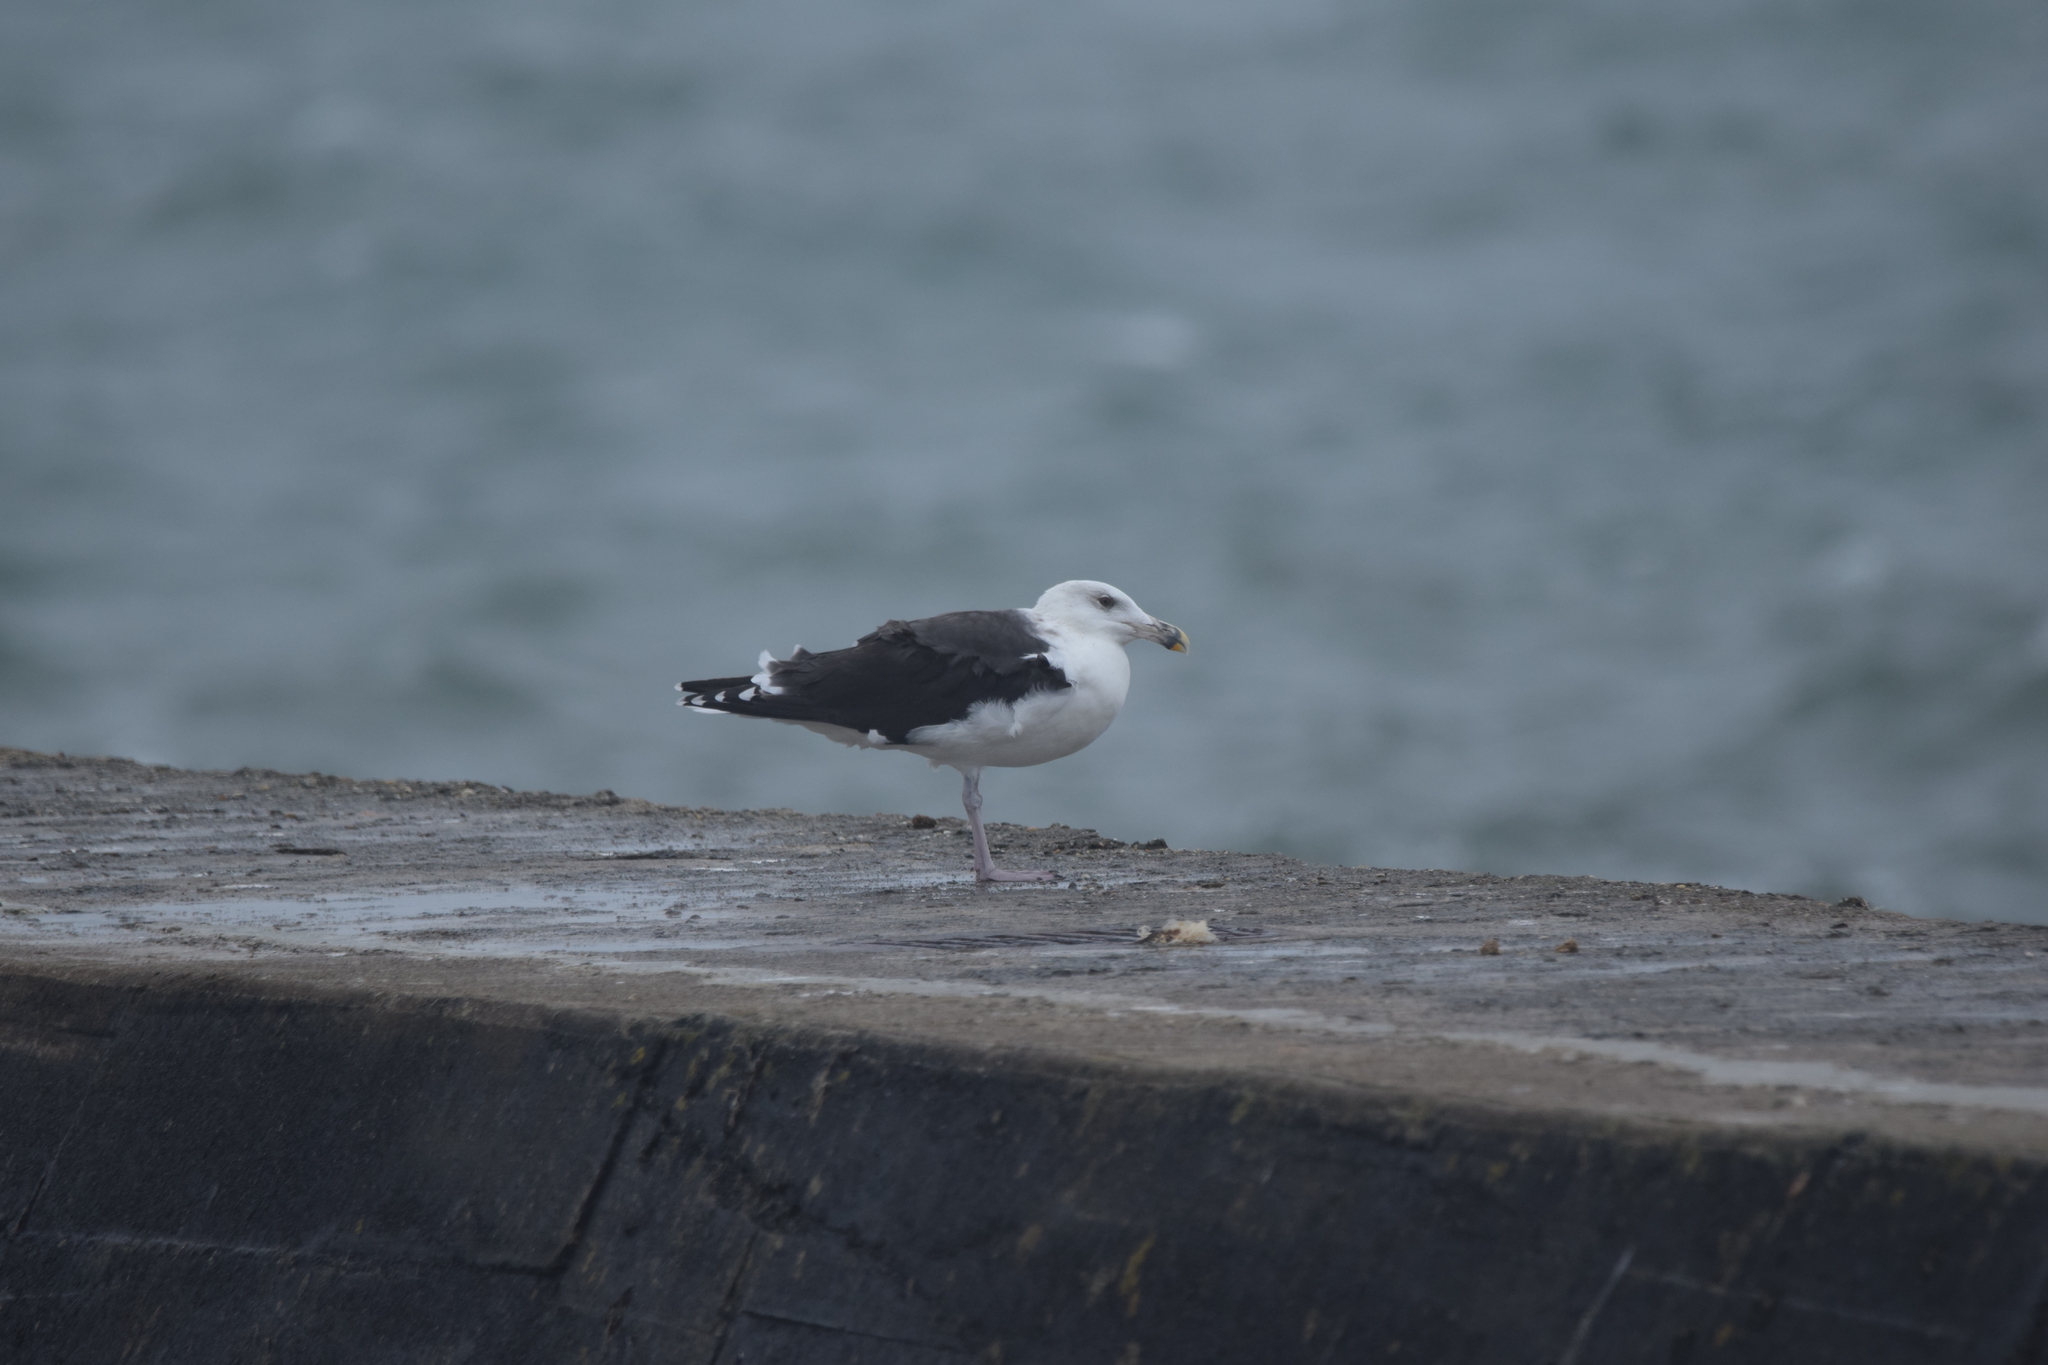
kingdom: Animalia
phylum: Chordata
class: Aves
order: Charadriiformes
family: Laridae
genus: Larus
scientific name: Larus marinus
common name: Great black-backed gull
